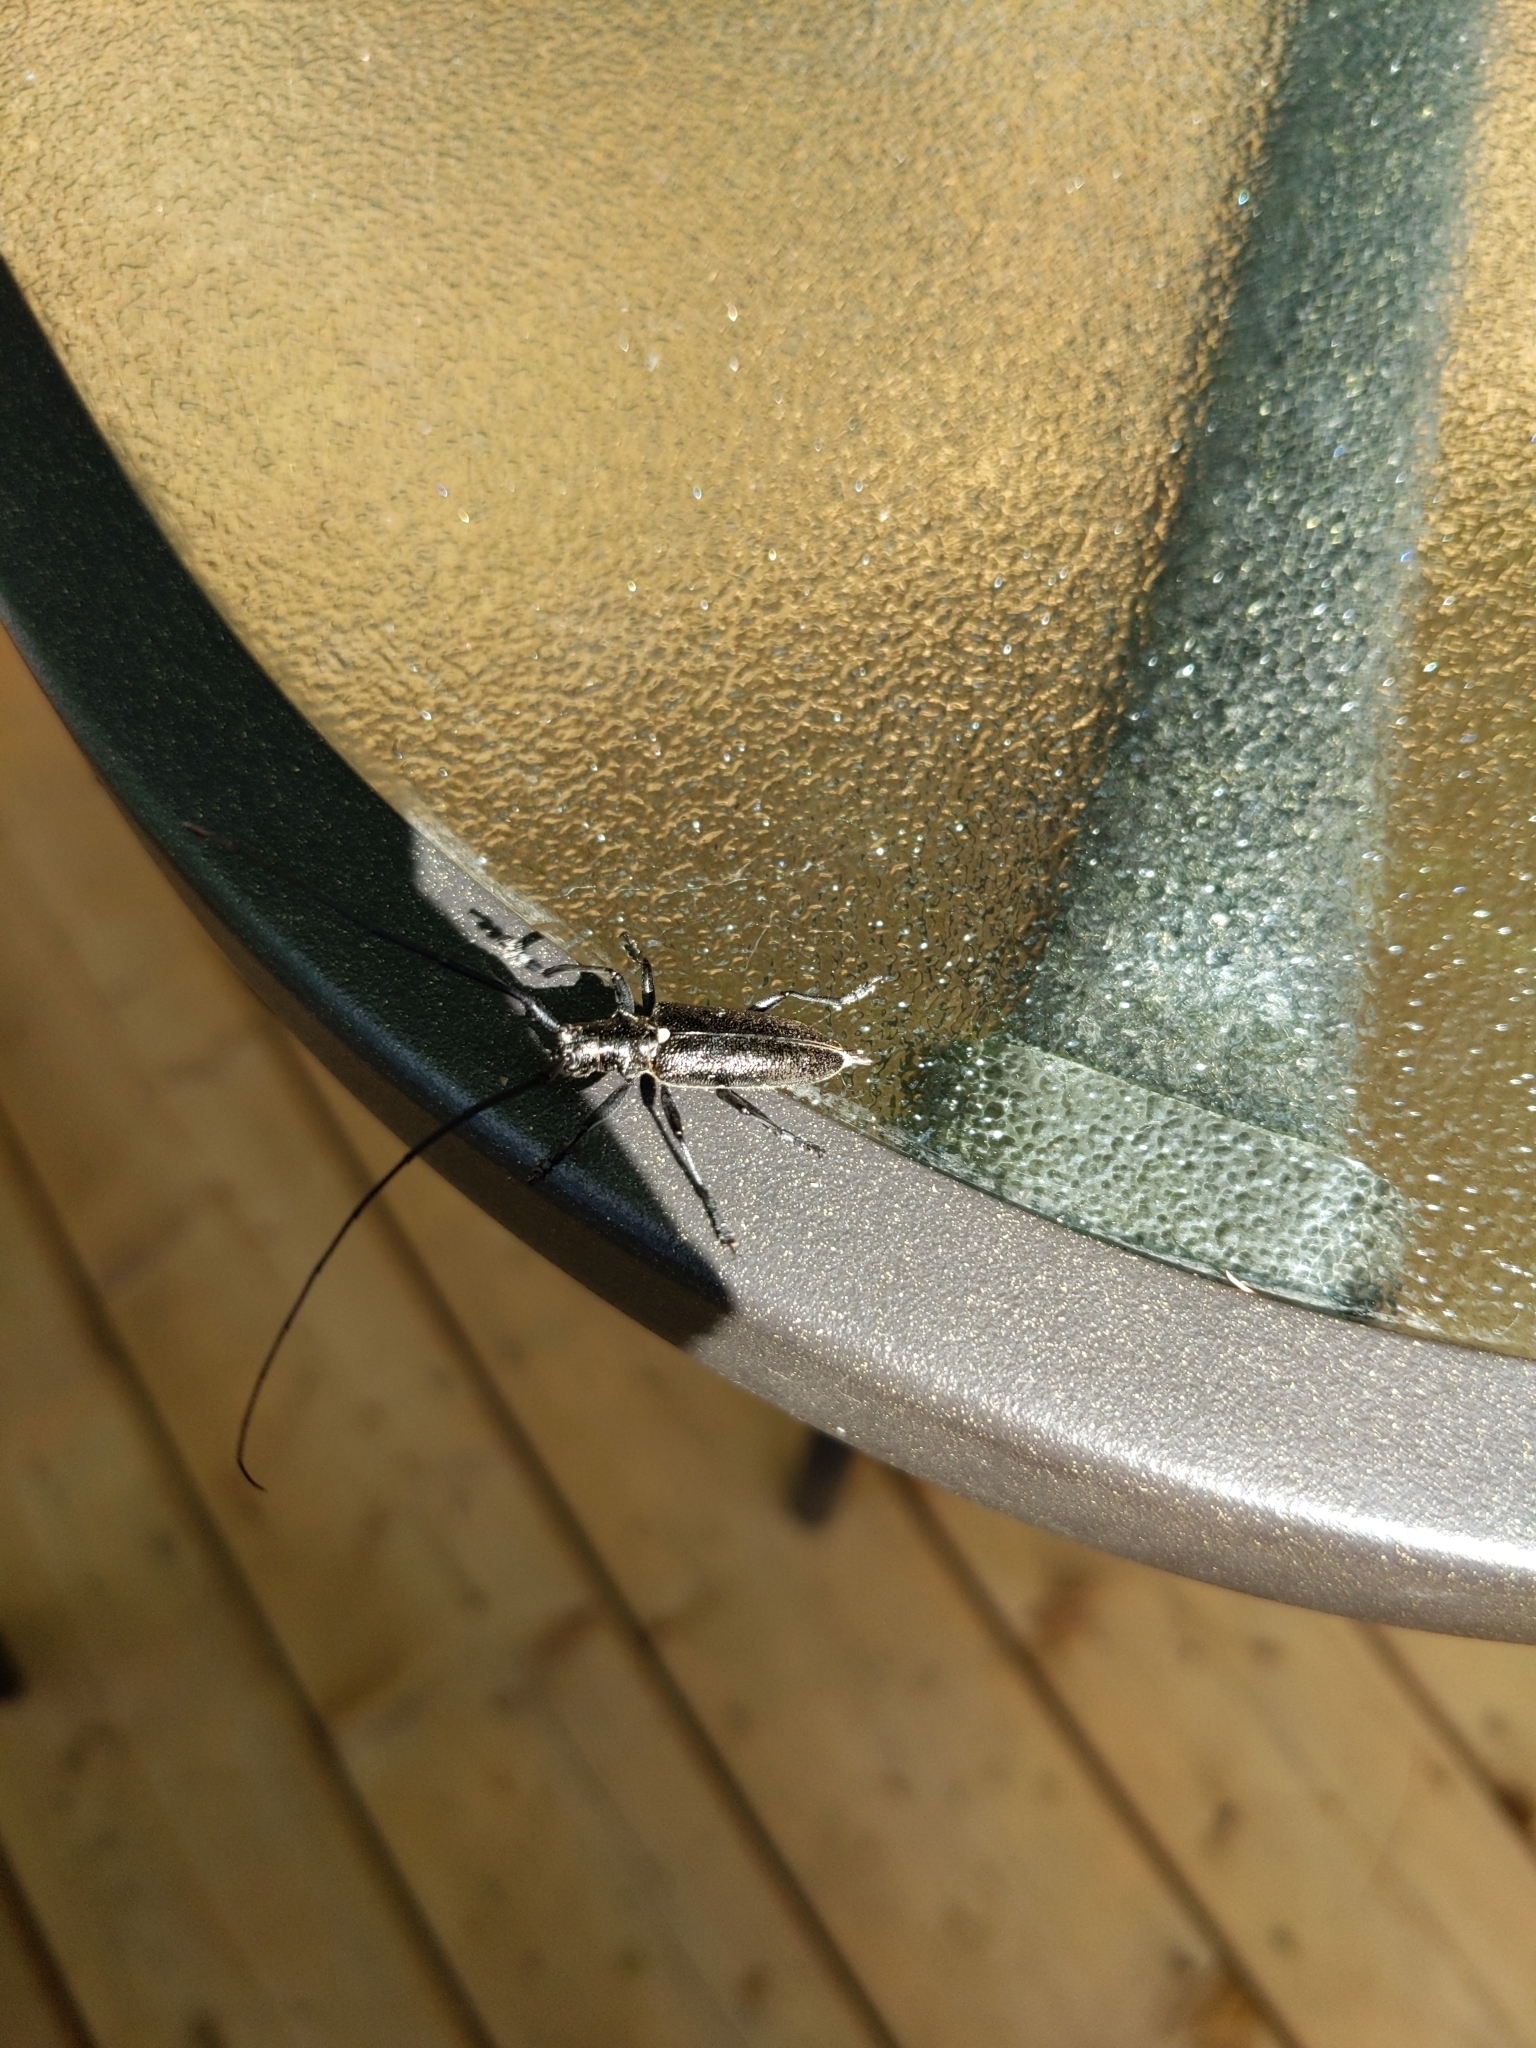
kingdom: Animalia
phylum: Arthropoda
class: Insecta
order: Coleoptera
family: Cerambycidae
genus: Monochamus
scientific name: Monochamus scutellatus
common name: White-spotted sawyer beetle
